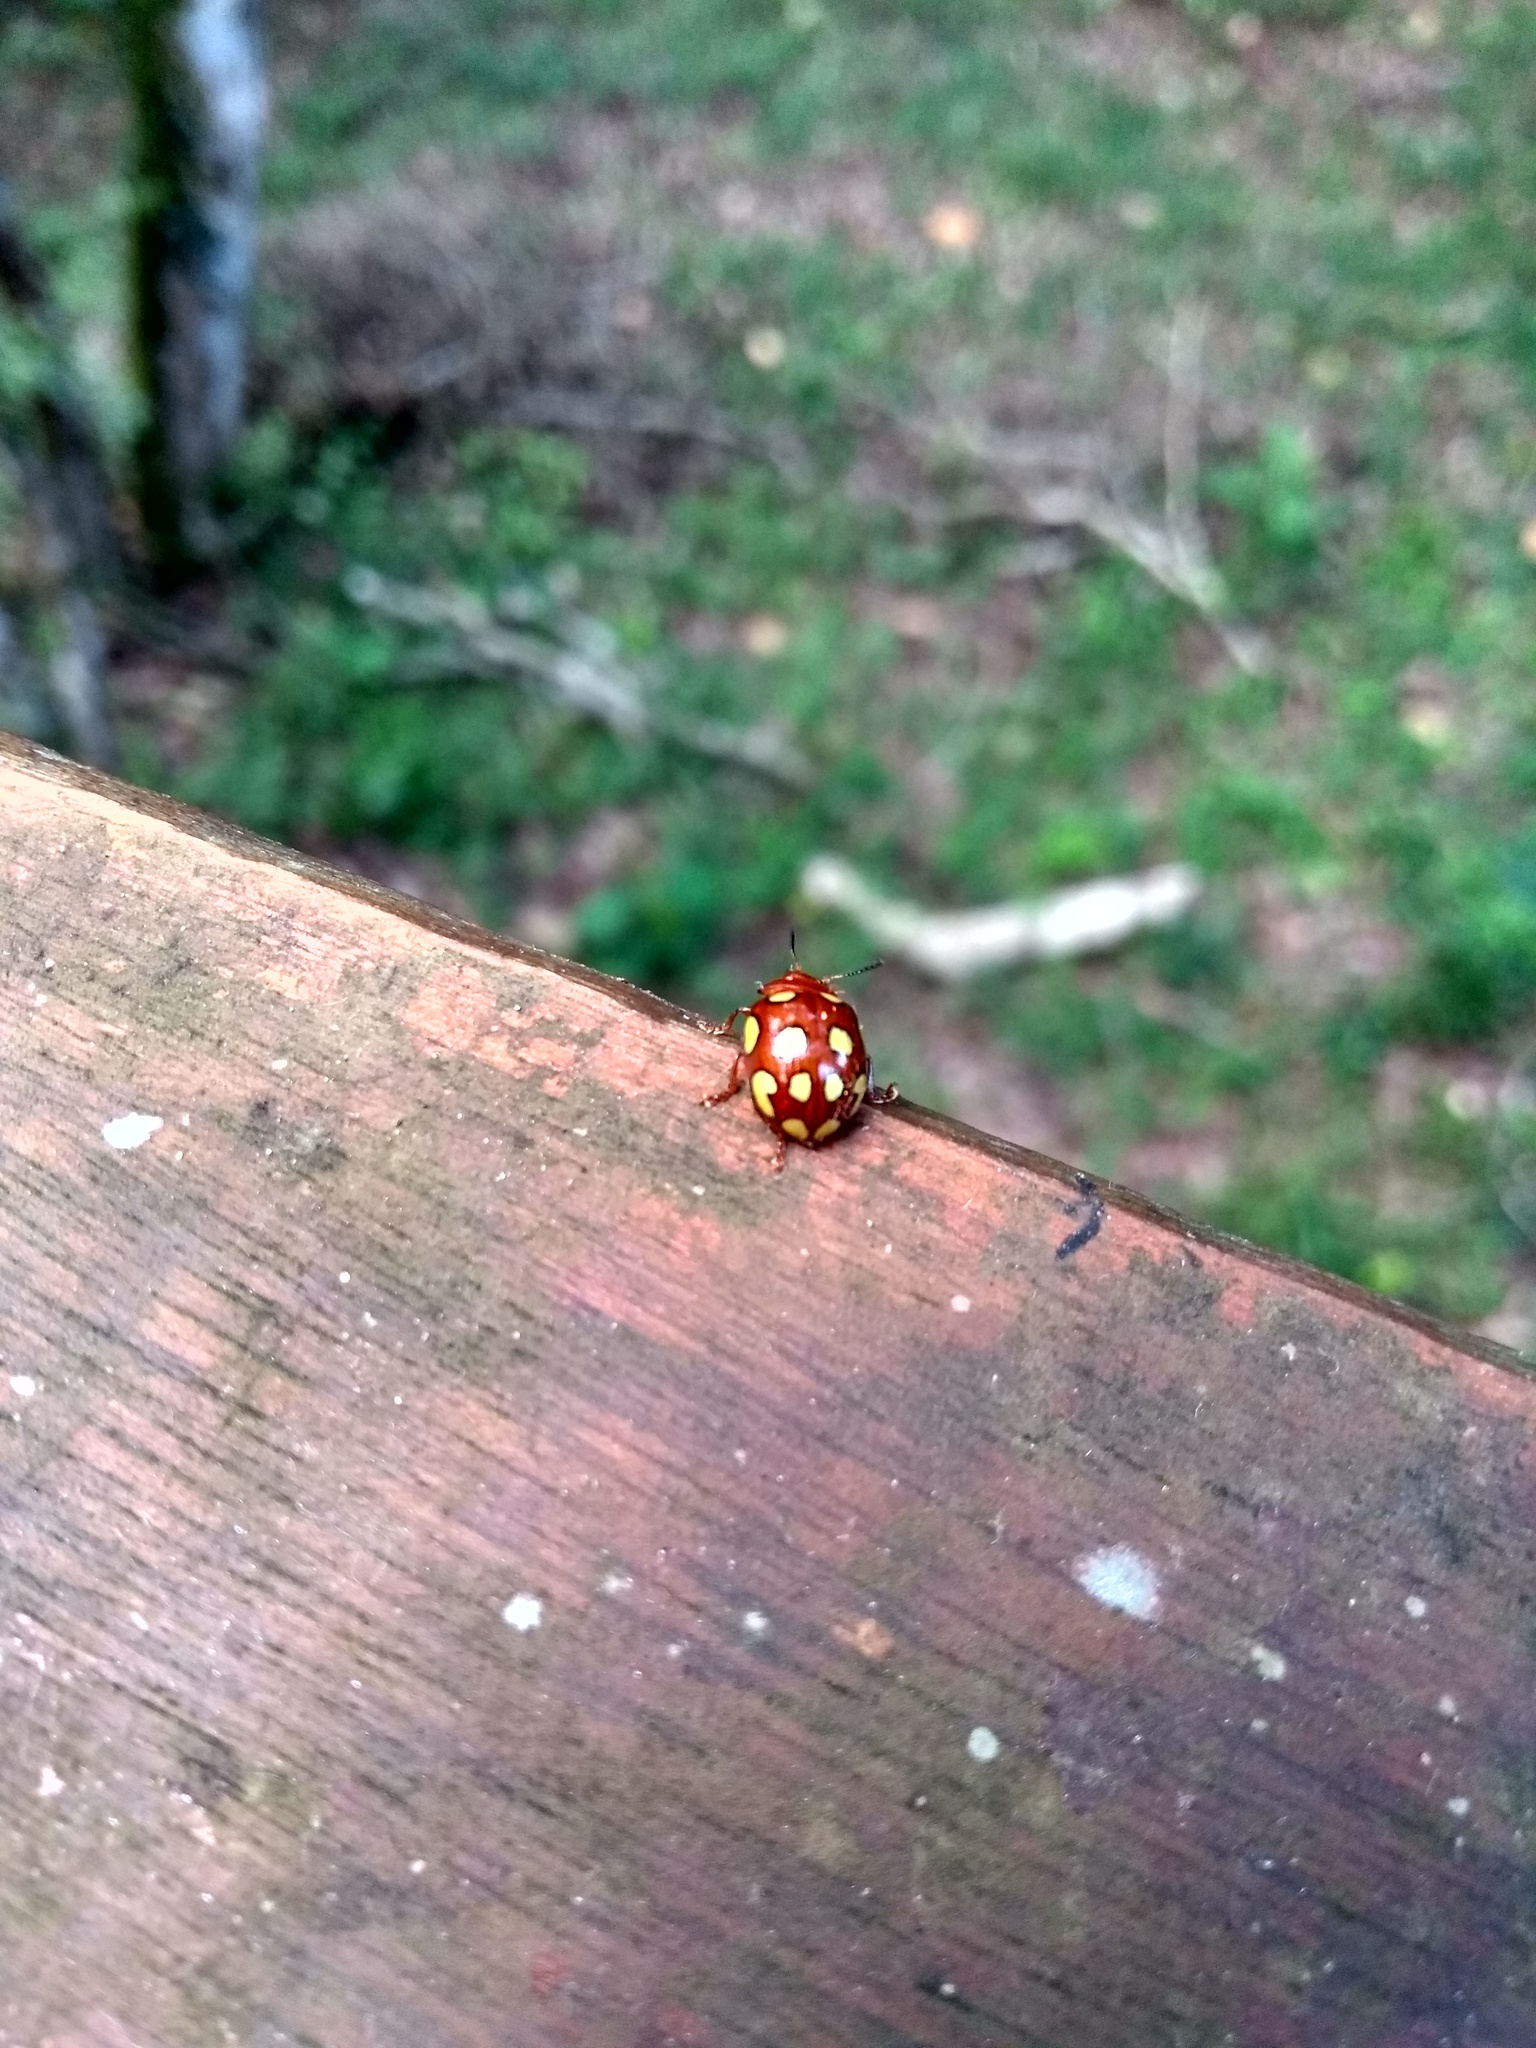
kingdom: Animalia
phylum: Arthropoda
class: Insecta
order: Coleoptera
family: Chrysomelidae
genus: Stilodes
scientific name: Stilodes
